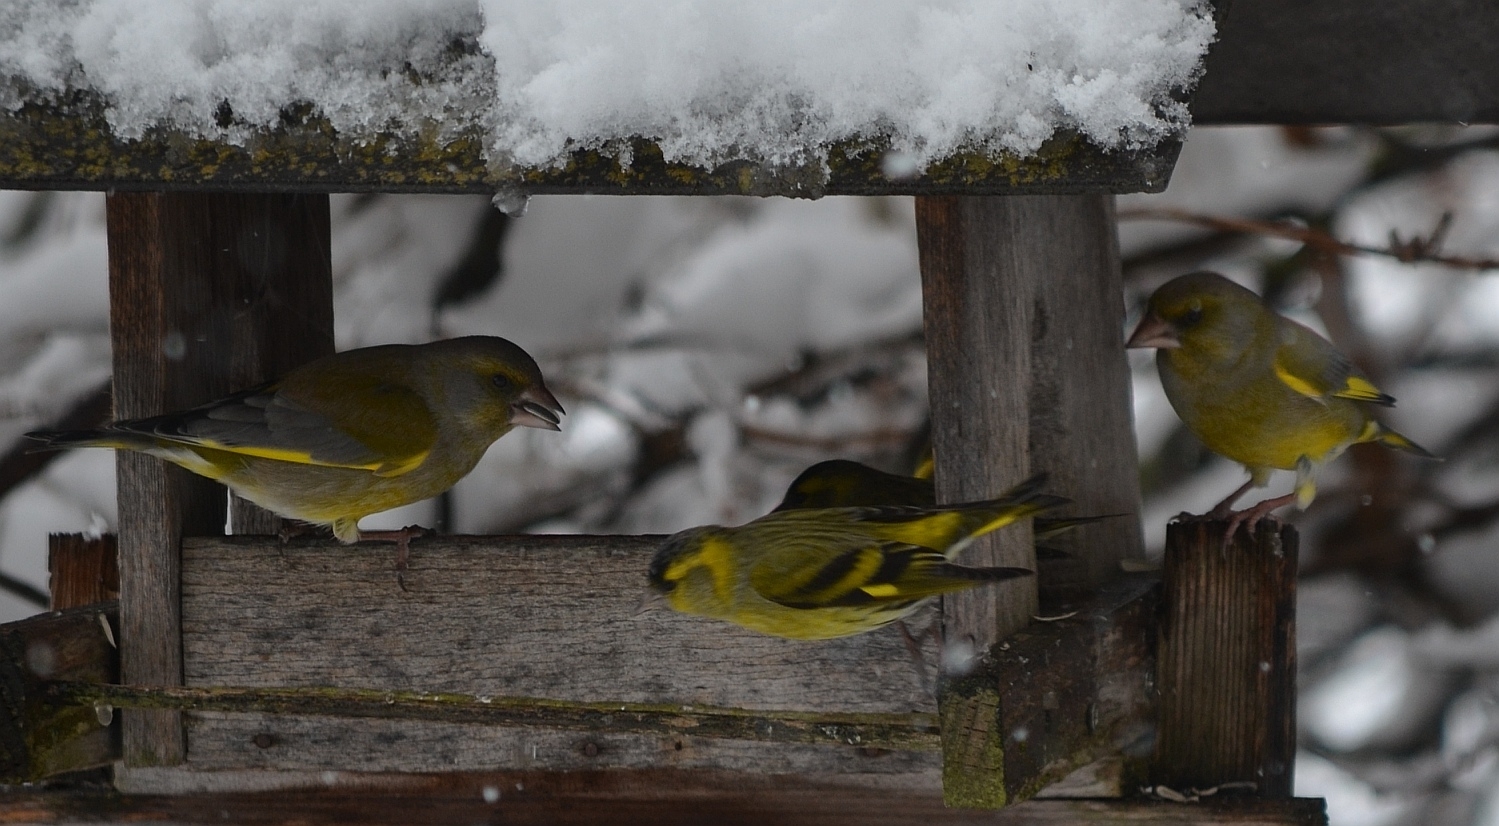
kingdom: Plantae
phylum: Tracheophyta
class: Liliopsida
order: Poales
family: Poaceae
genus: Chloris
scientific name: Chloris chloris
